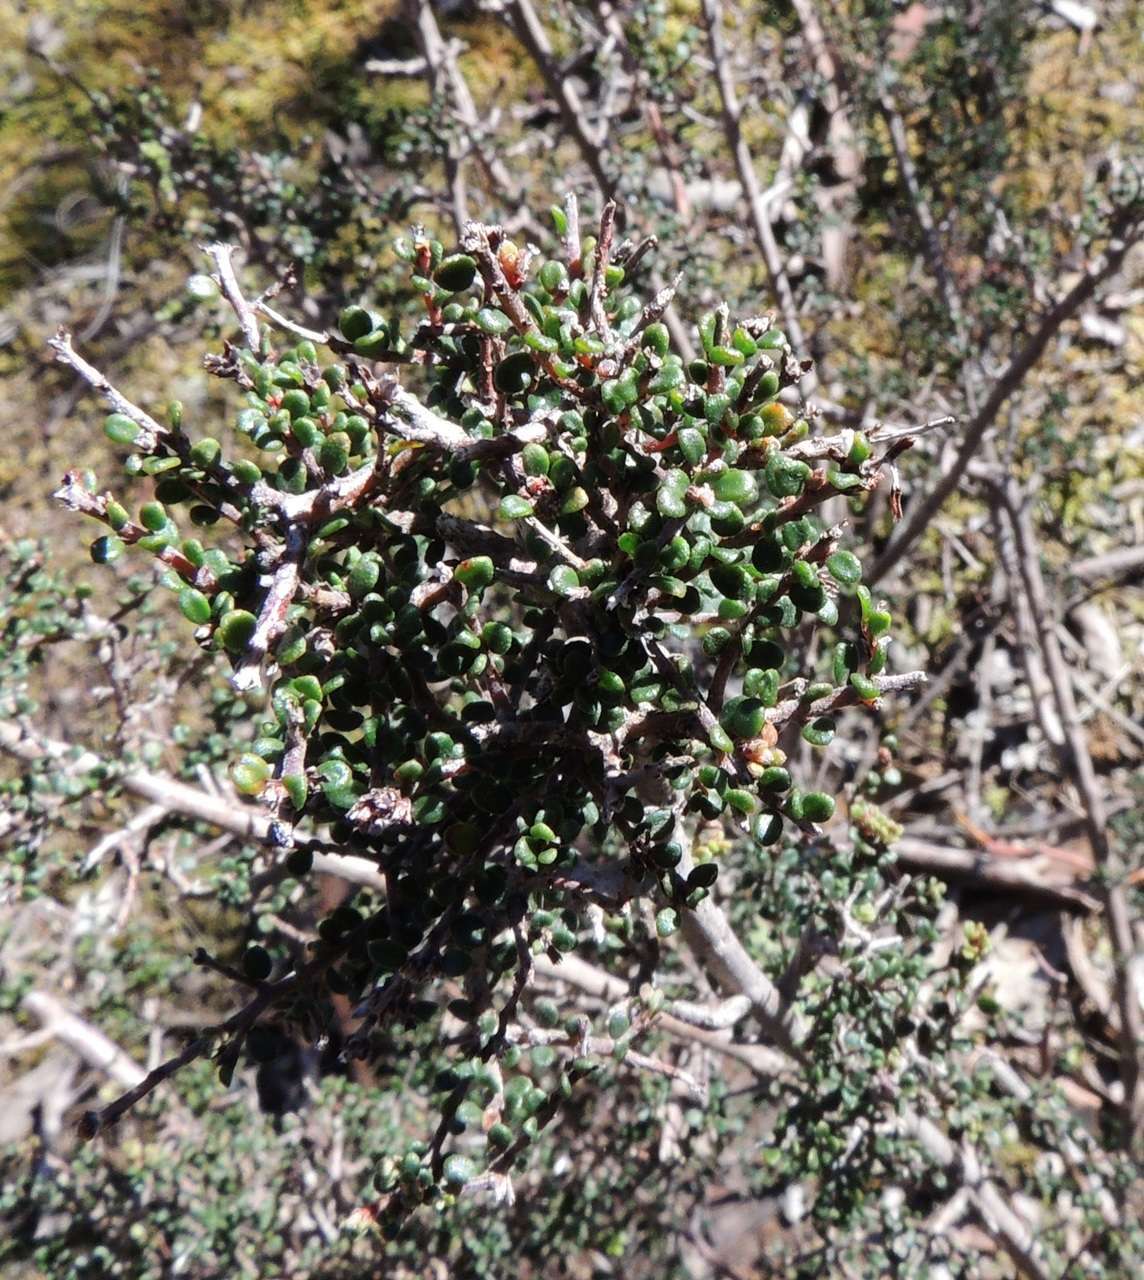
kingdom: Plantae
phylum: Tracheophyta
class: Magnoliopsida
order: Fabales
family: Fabaceae
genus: Pultenaea
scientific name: Pultenaea gunnii
